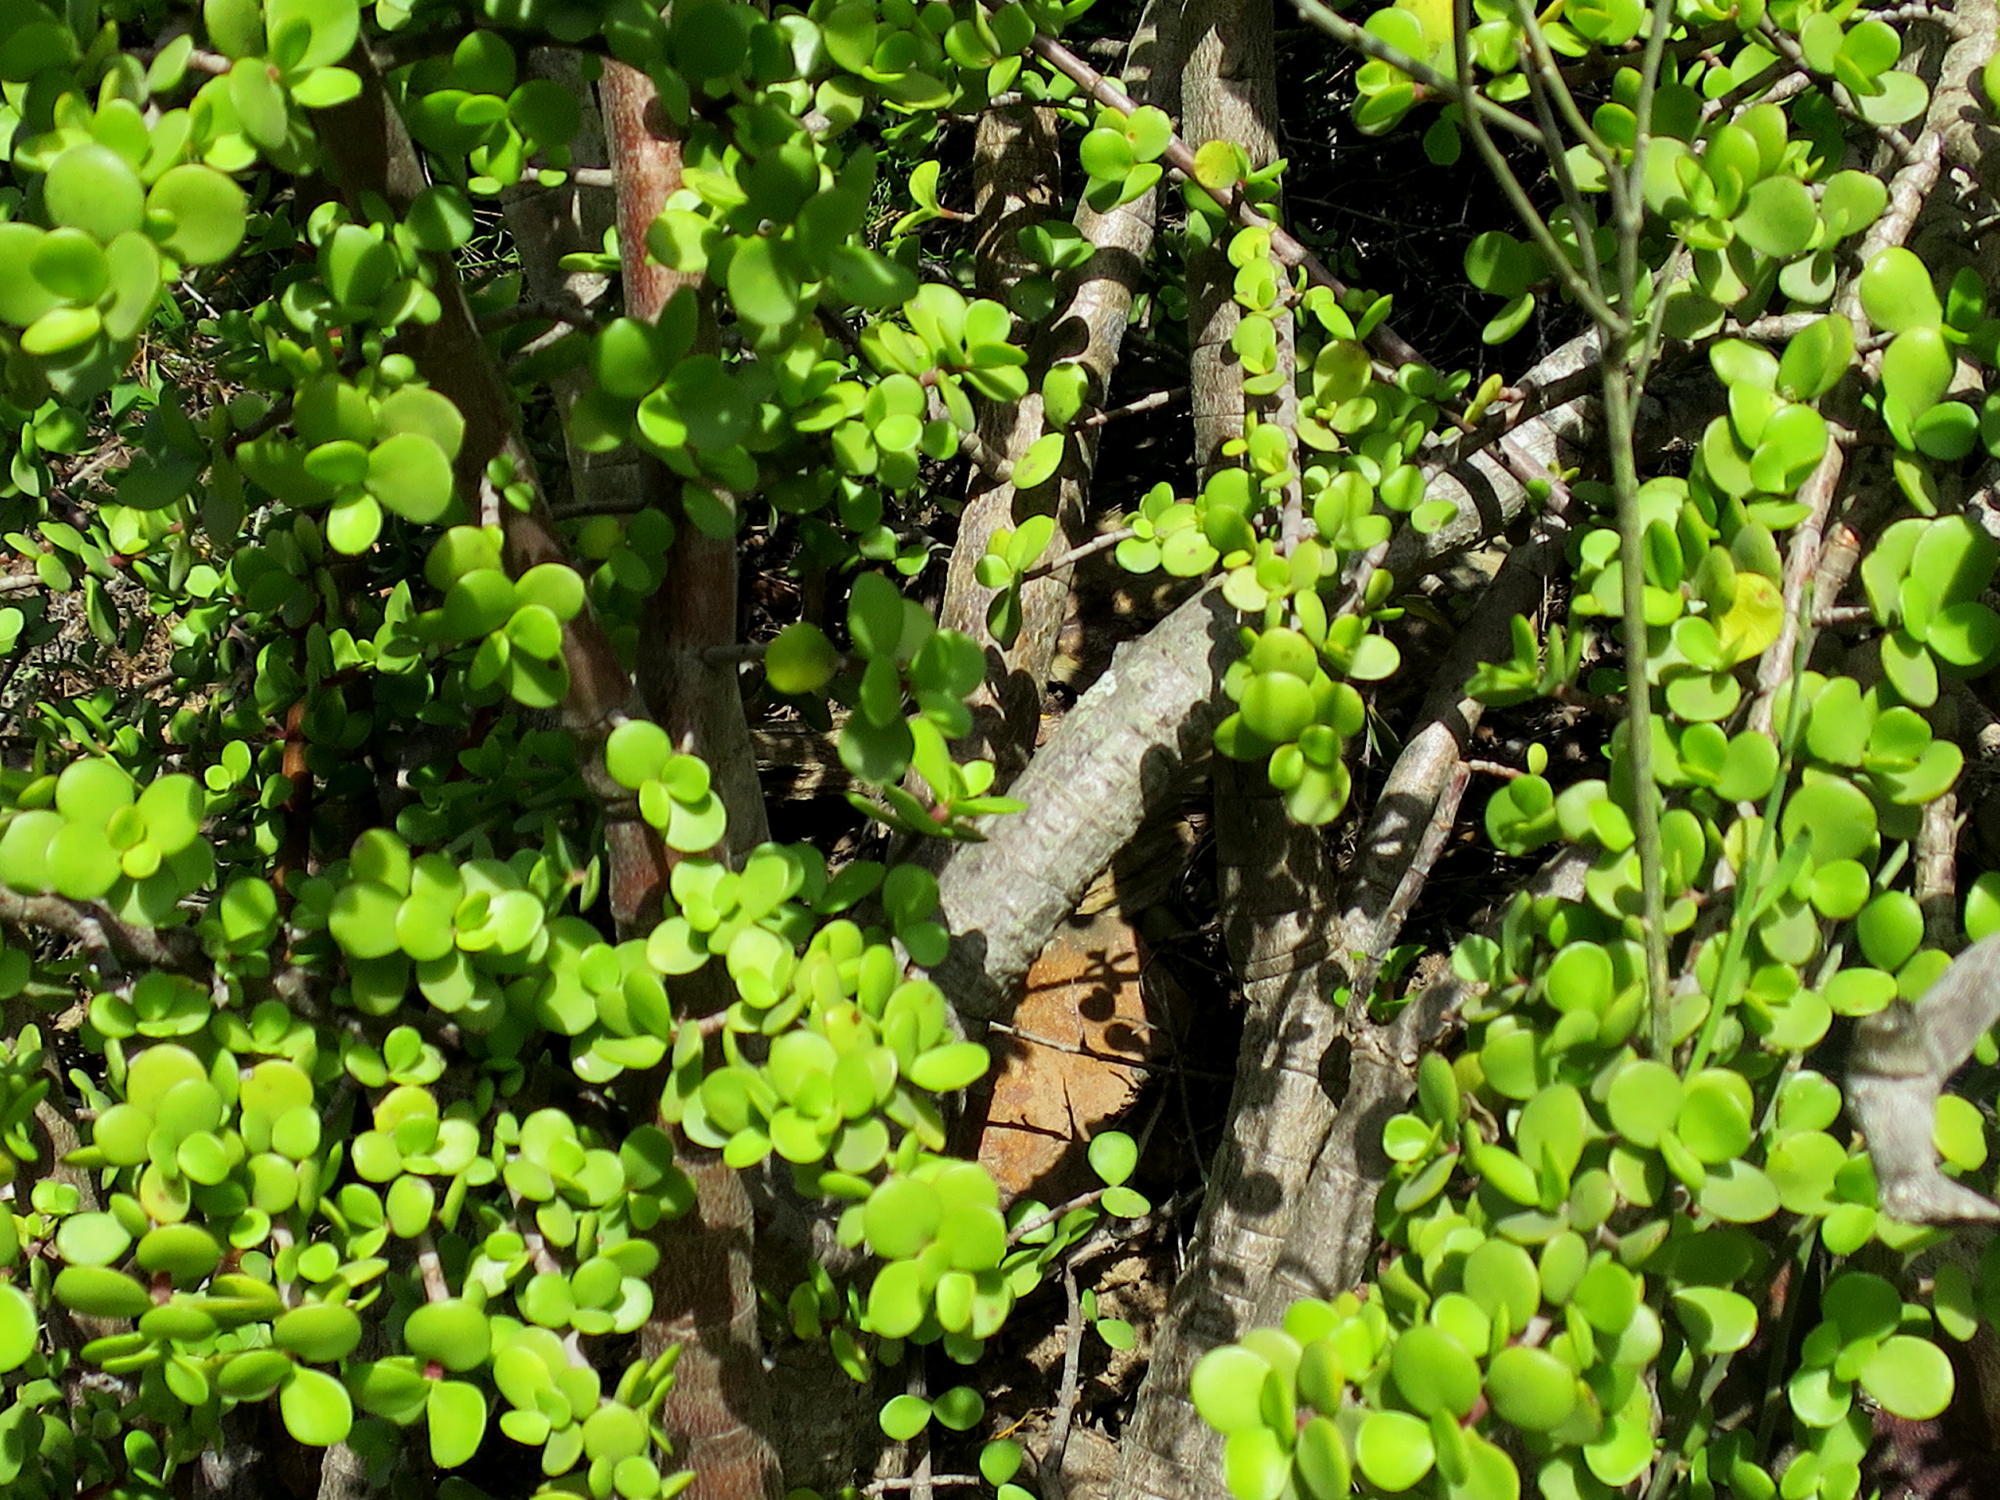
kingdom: Plantae
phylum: Tracheophyta
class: Magnoliopsida
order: Caryophyllales
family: Didiereaceae
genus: Portulacaria
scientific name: Portulacaria afra
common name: Elephant-bush
